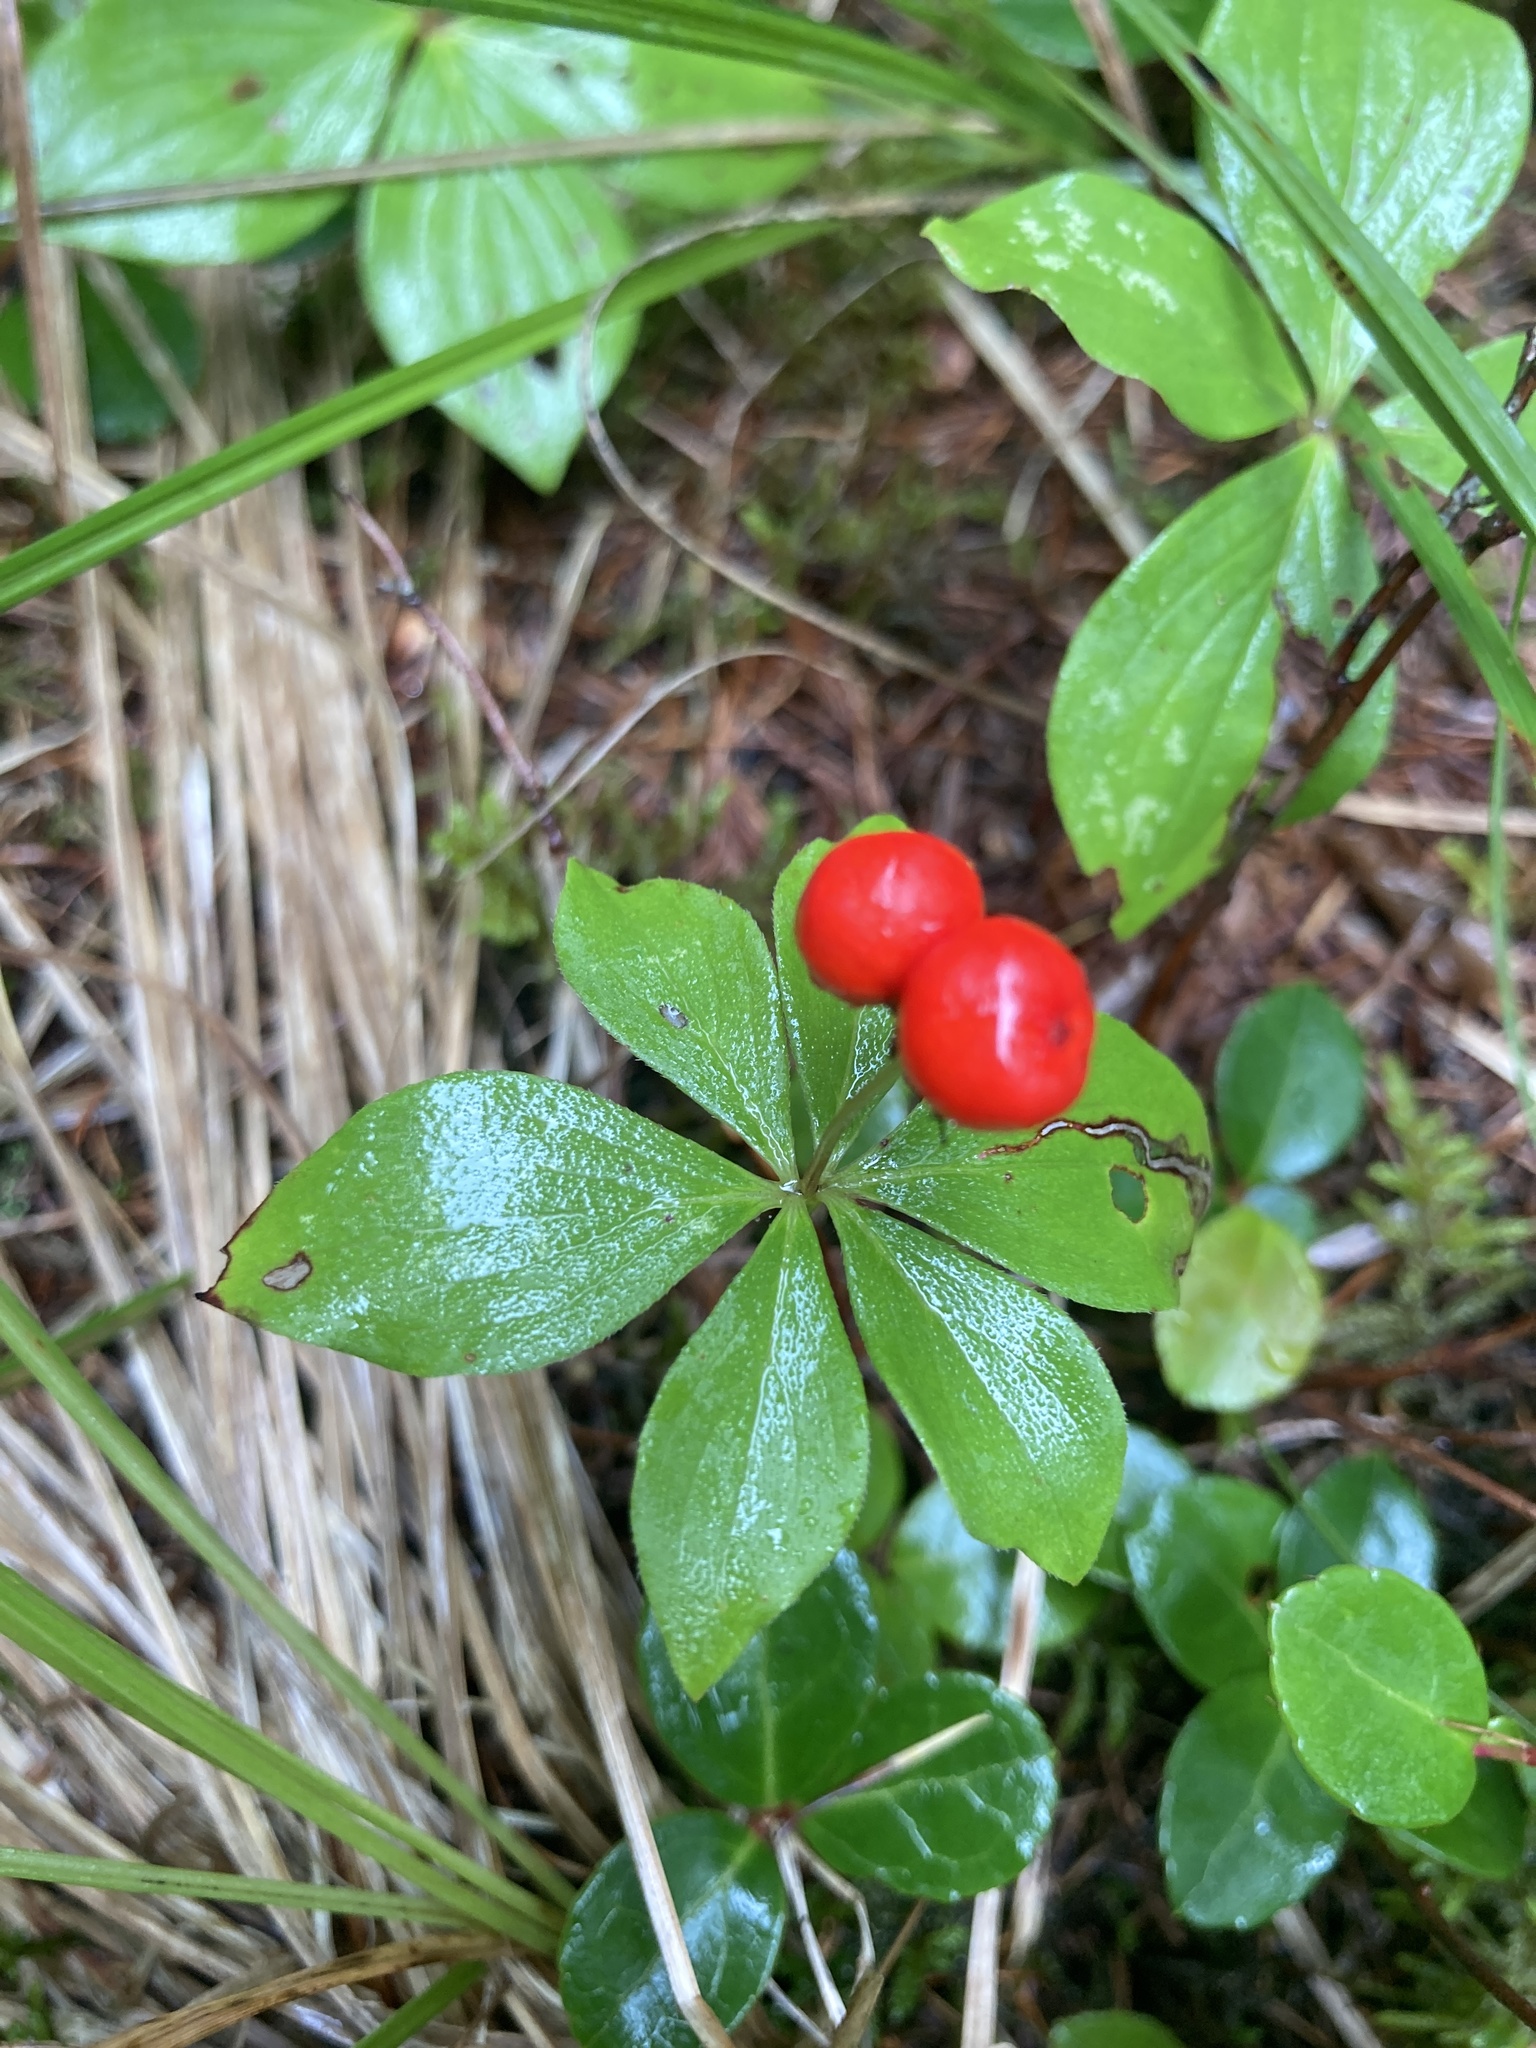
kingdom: Plantae
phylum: Tracheophyta
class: Magnoliopsida
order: Cornales
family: Cornaceae
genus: Cornus
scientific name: Cornus canadensis
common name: Creeping dogwood
